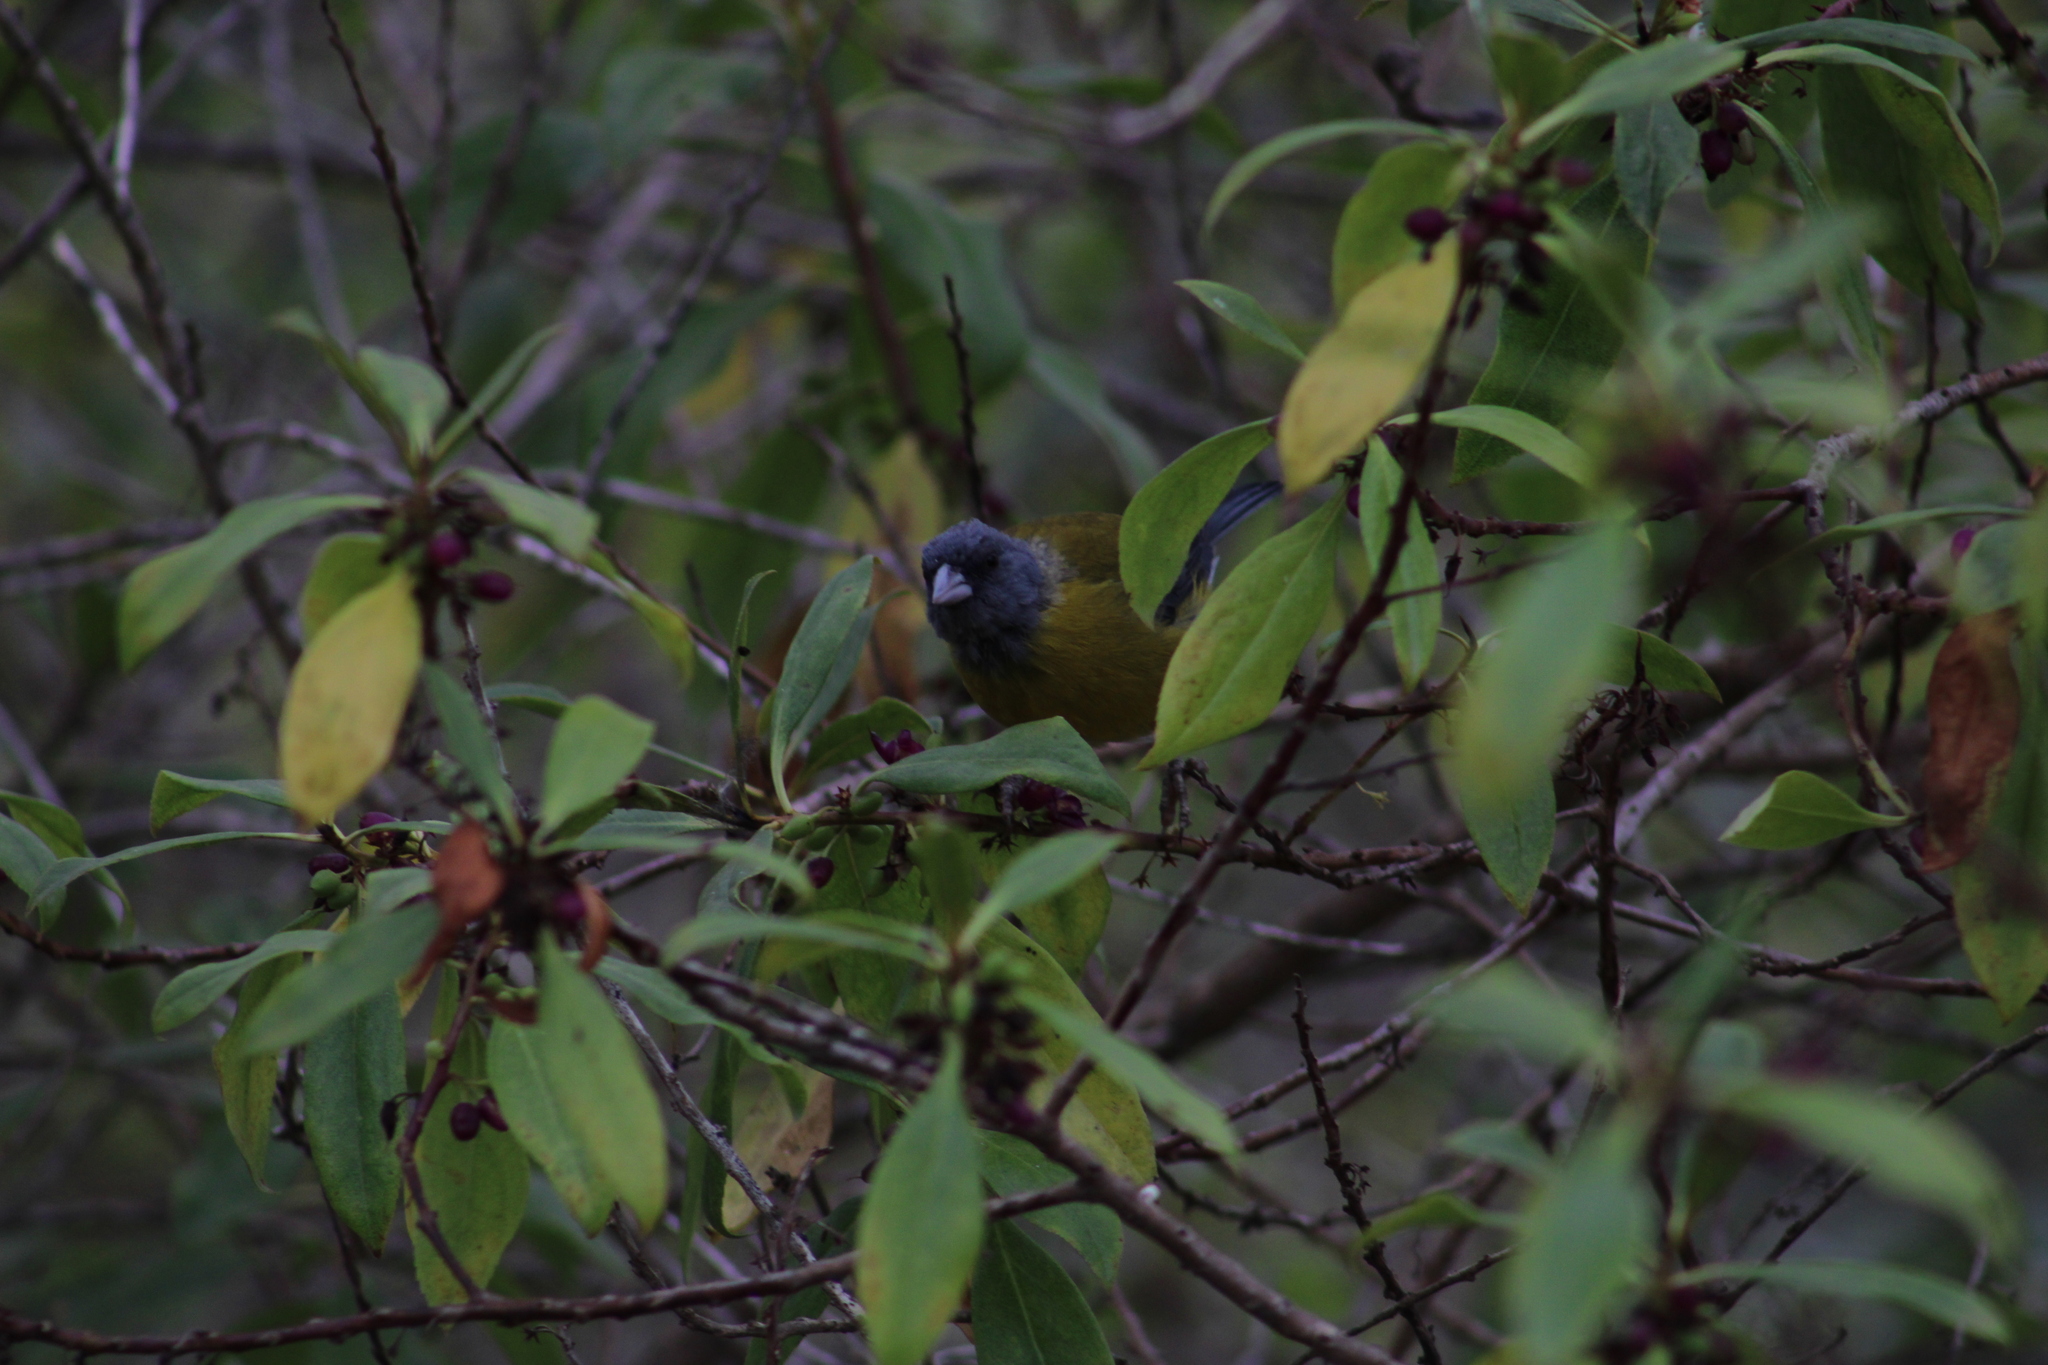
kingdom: Animalia
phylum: Chordata
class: Aves
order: Passeriformes
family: Thraupidae
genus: Phrygilus
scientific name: Phrygilus gayi
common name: Grey-hooded sierra finch
